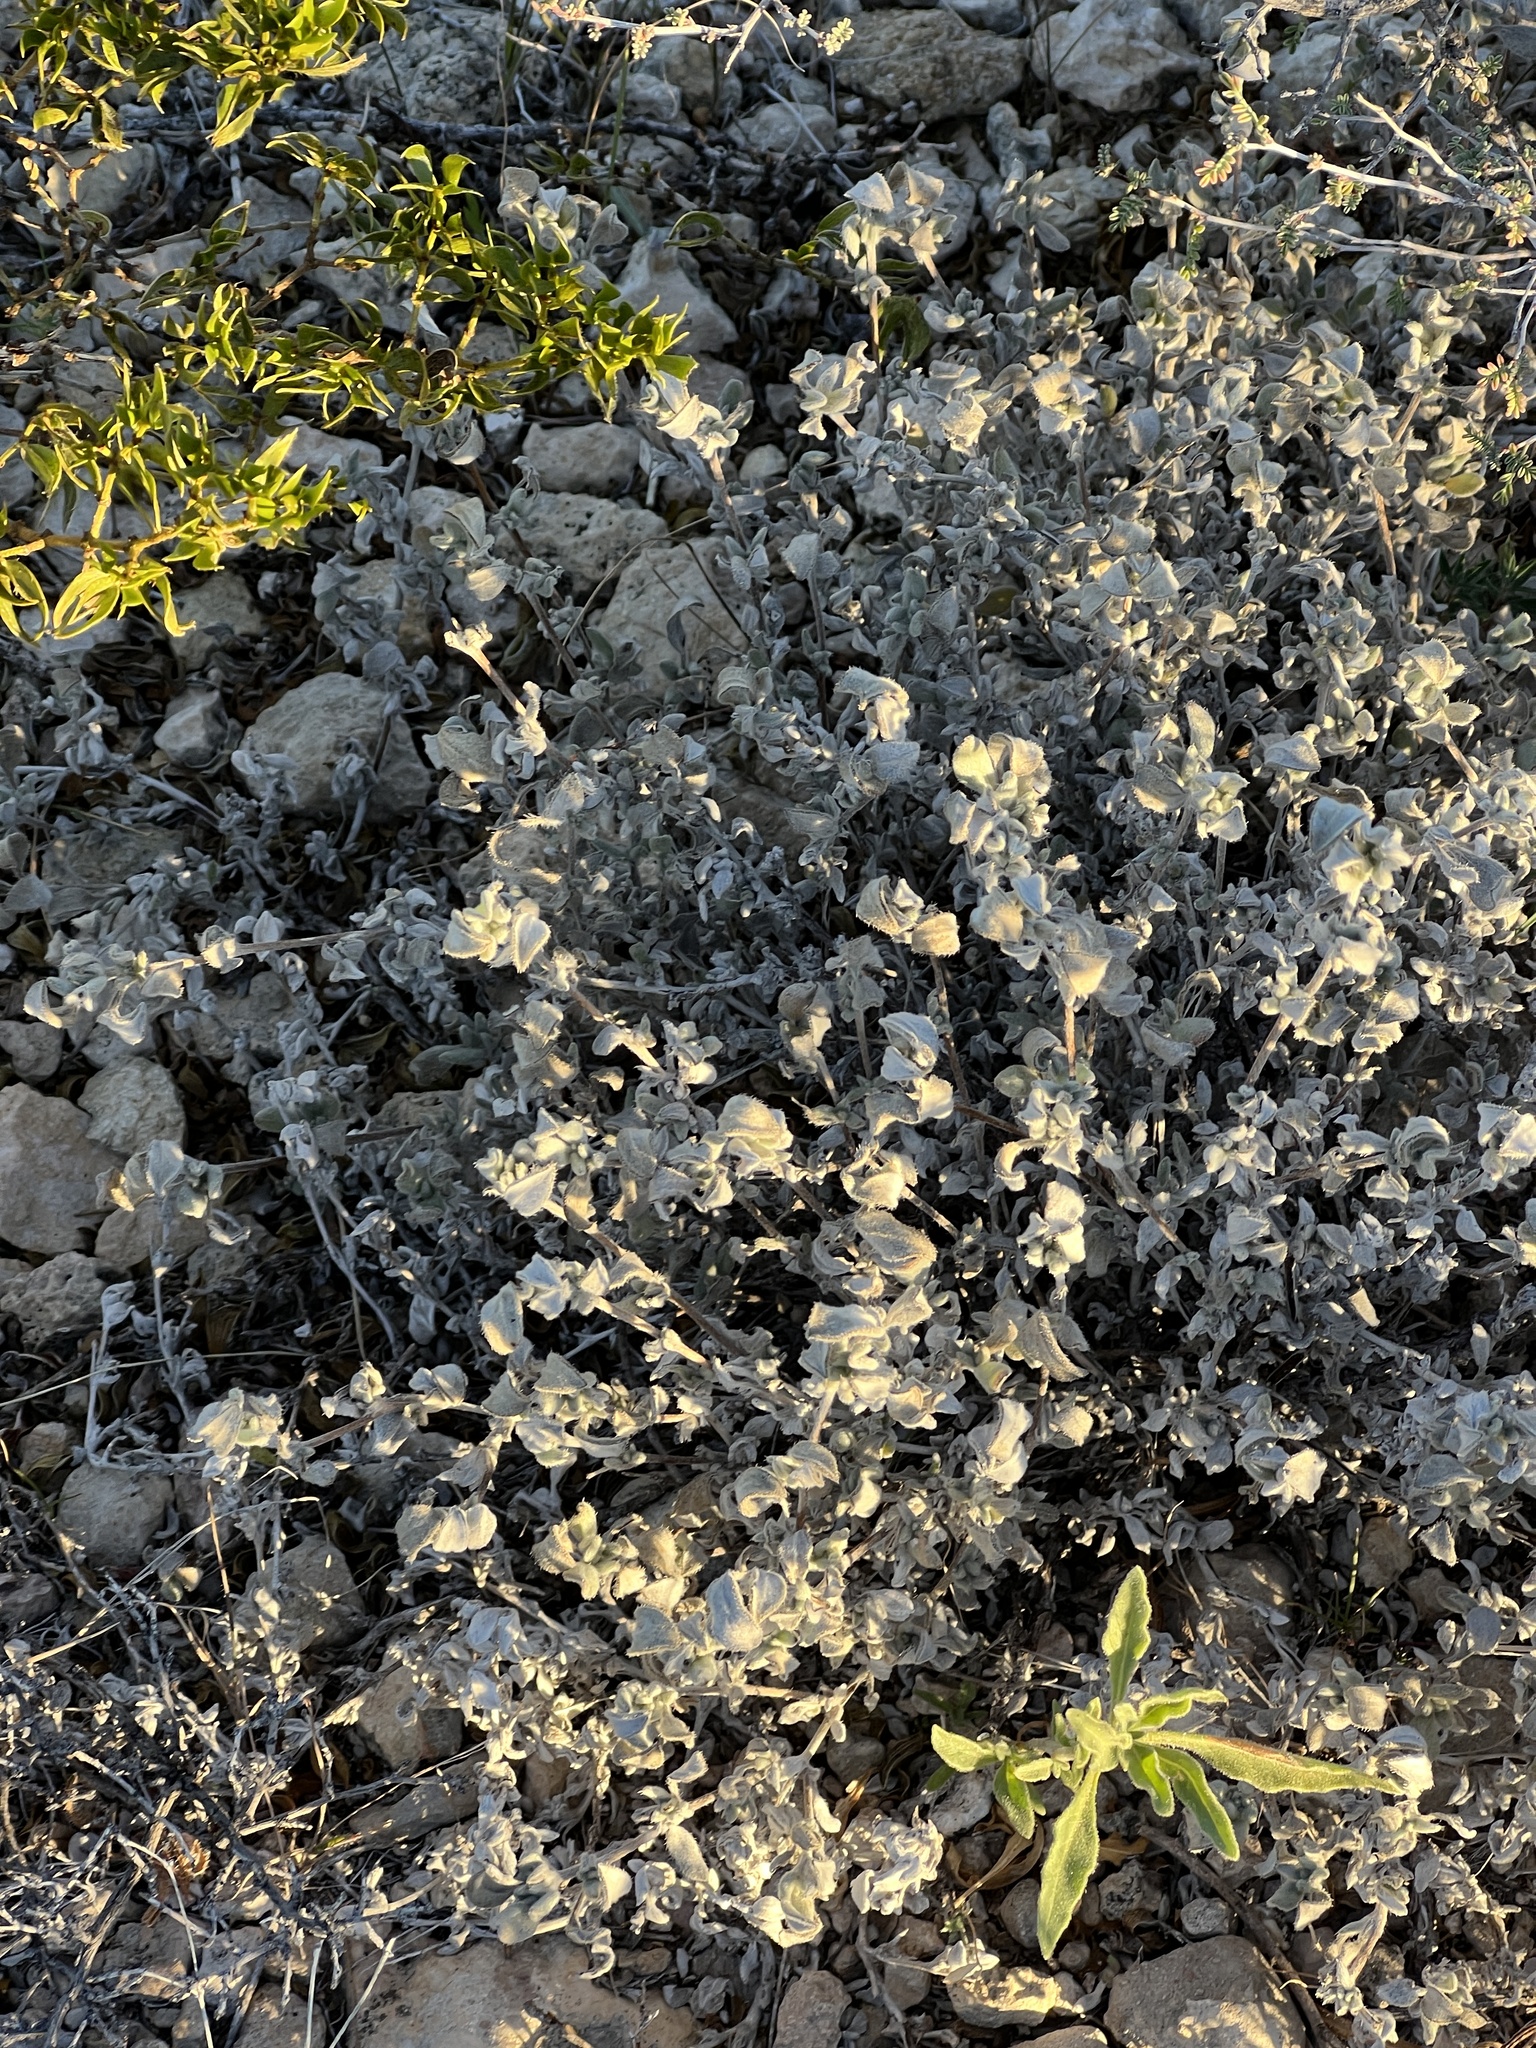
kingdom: Plantae
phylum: Tracheophyta
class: Magnoliopsida
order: Boraginales
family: Ehretiaceae
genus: Tiquilia
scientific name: Tiquilia canescens
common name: Hairy tiquilia
